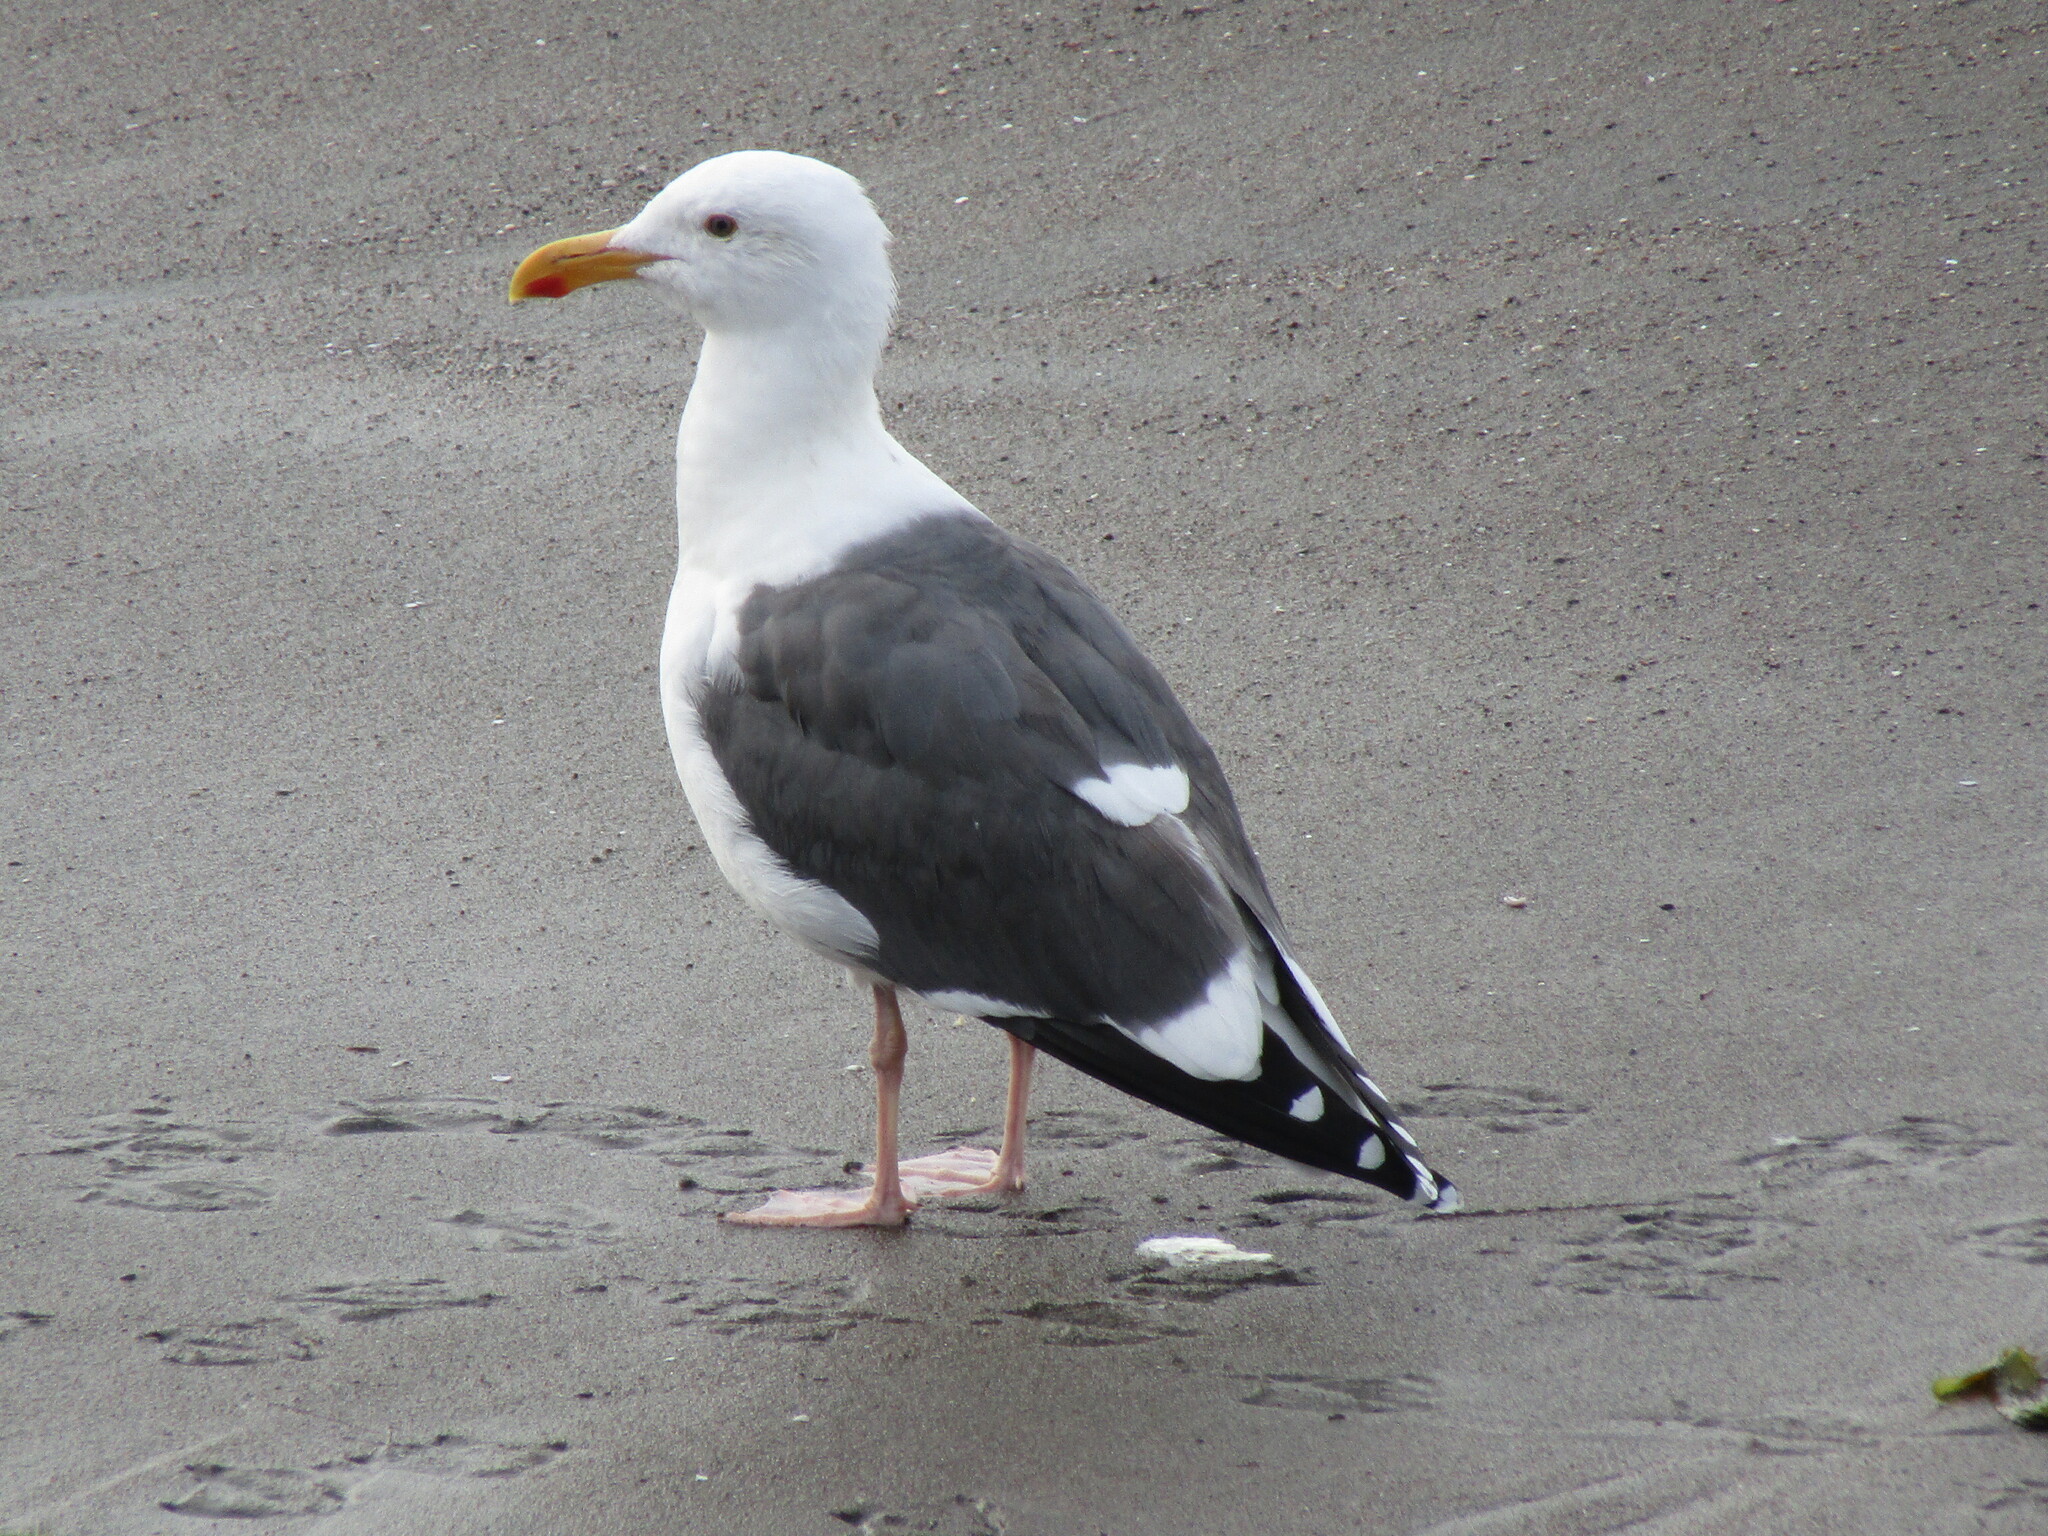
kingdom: Animalia
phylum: Chordata
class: Aves
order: Charadriiformes
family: Laridae
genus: Larus
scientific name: Larus occidentalis
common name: Western gull
